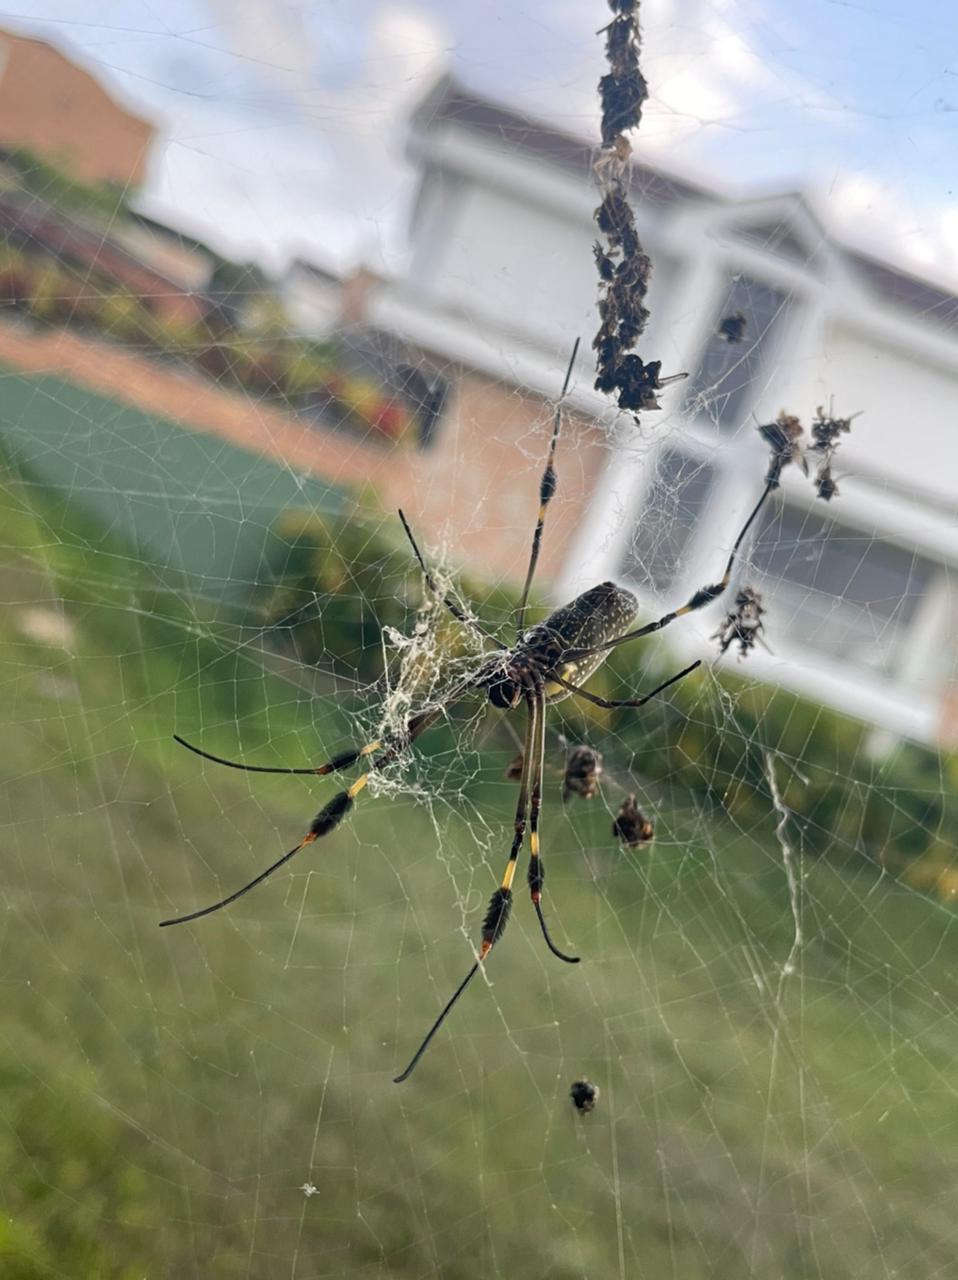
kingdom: Animalia
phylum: Arthropoda
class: Arachnida
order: Araneae
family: Araneidae
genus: Trichonephila
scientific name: Trichonephila clavipes
